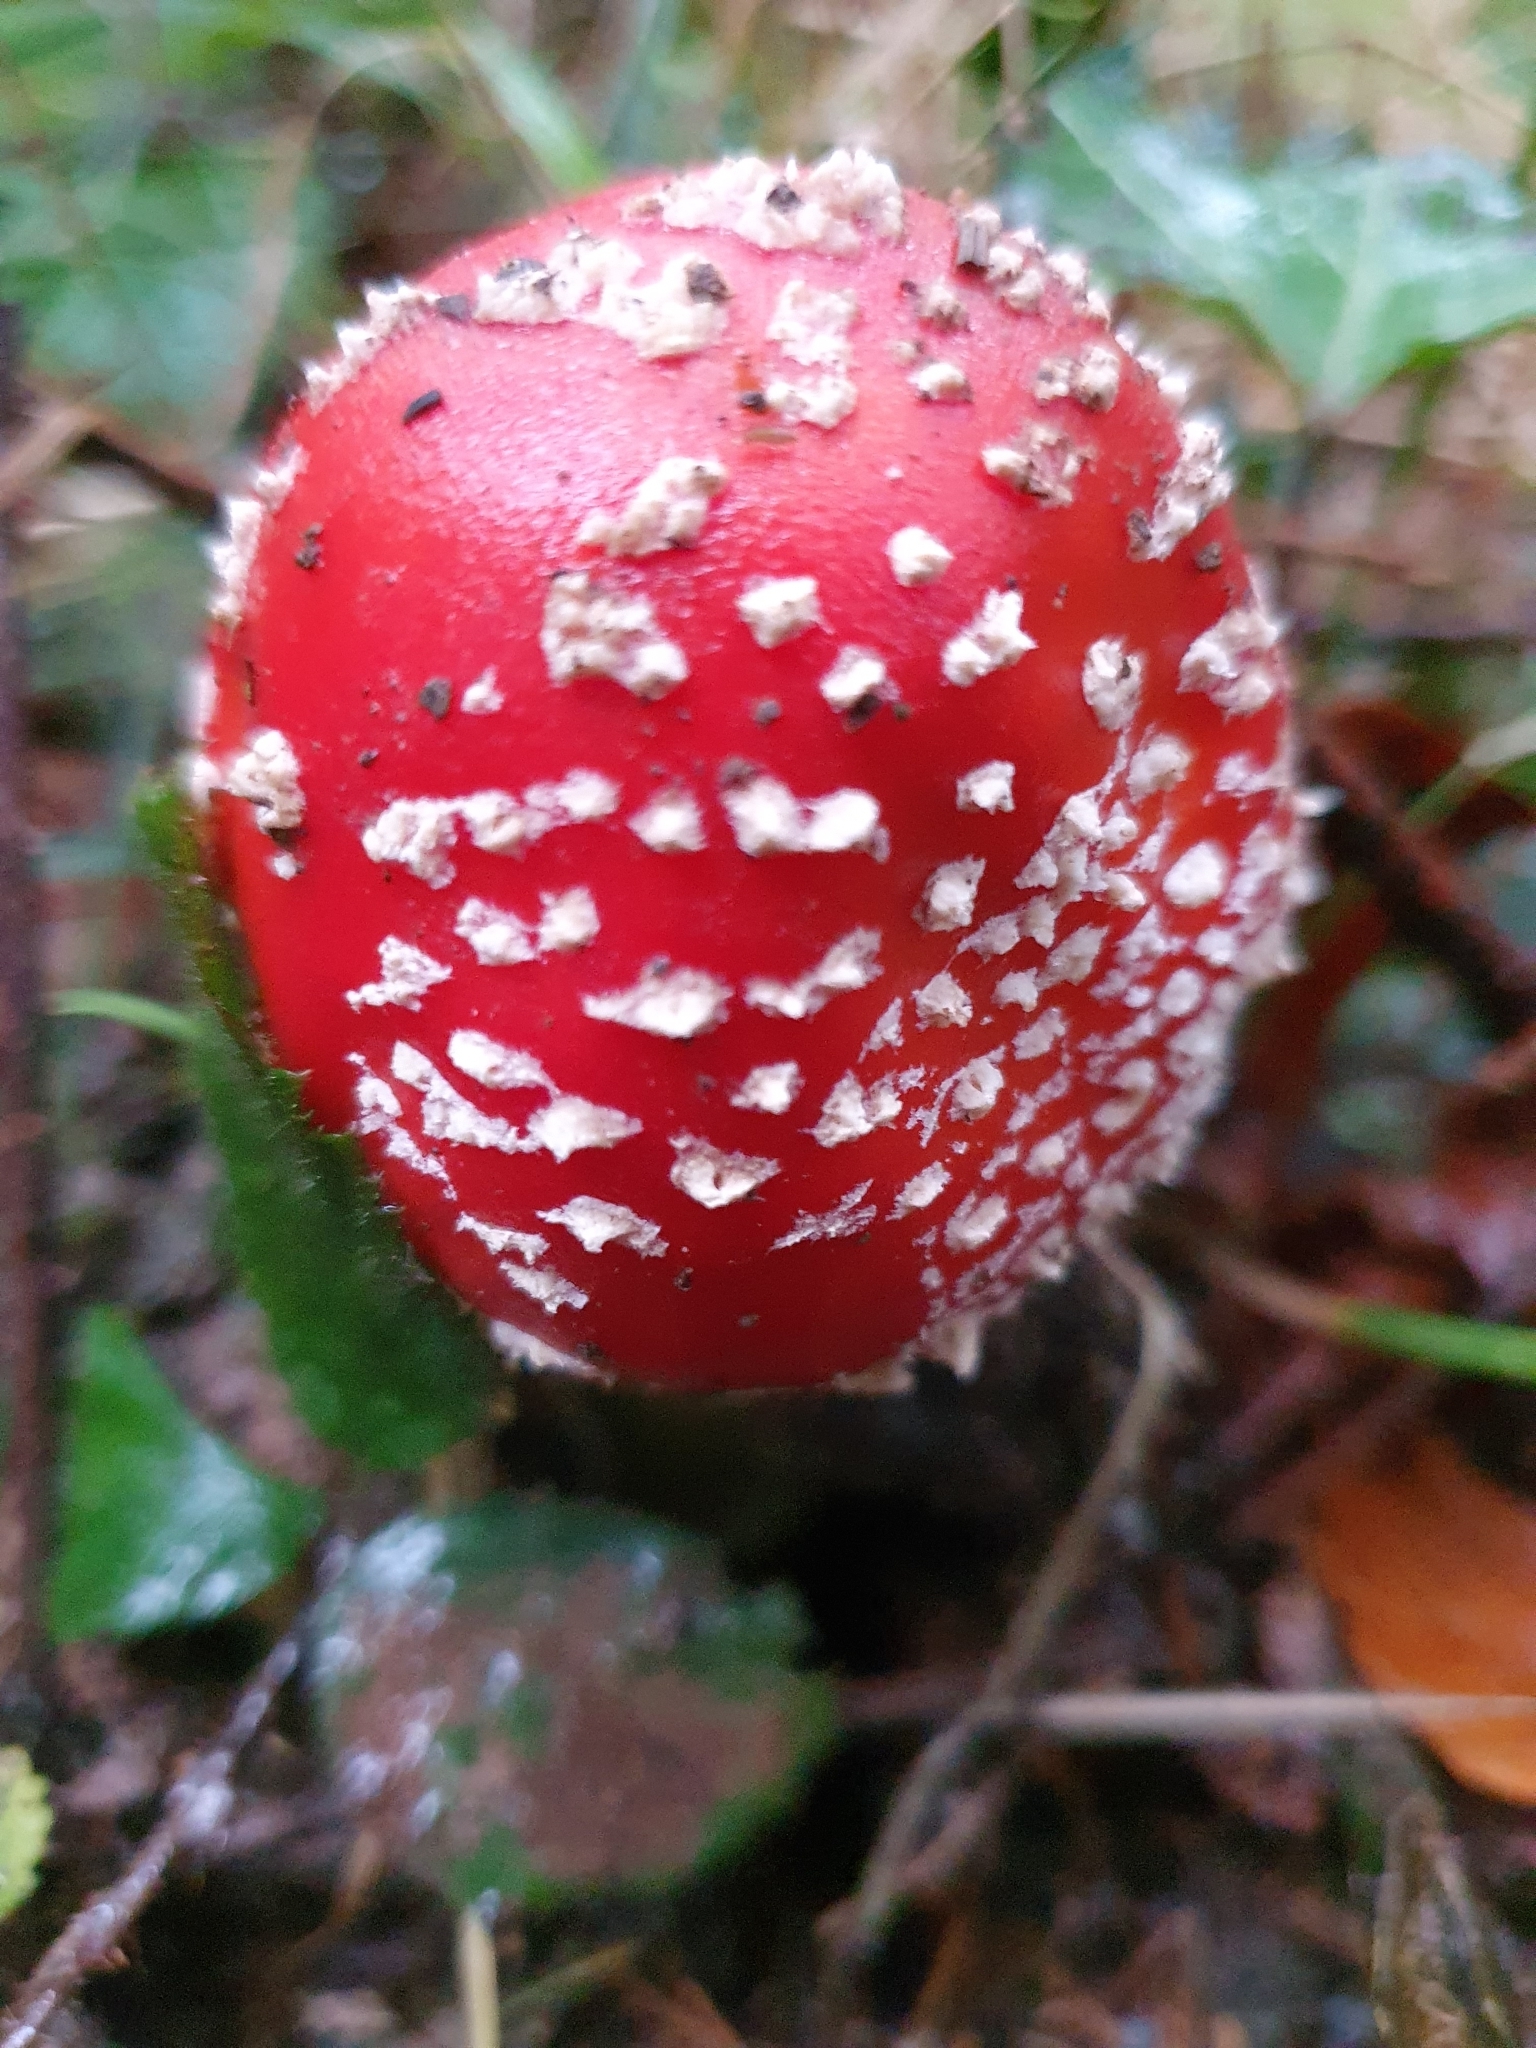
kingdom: Fungi
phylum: Basidiomycota
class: Agaricomycetes
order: Agaricales
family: Amanitaceae
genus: Amanita
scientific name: Amanita muscaria
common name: Fly agaric
